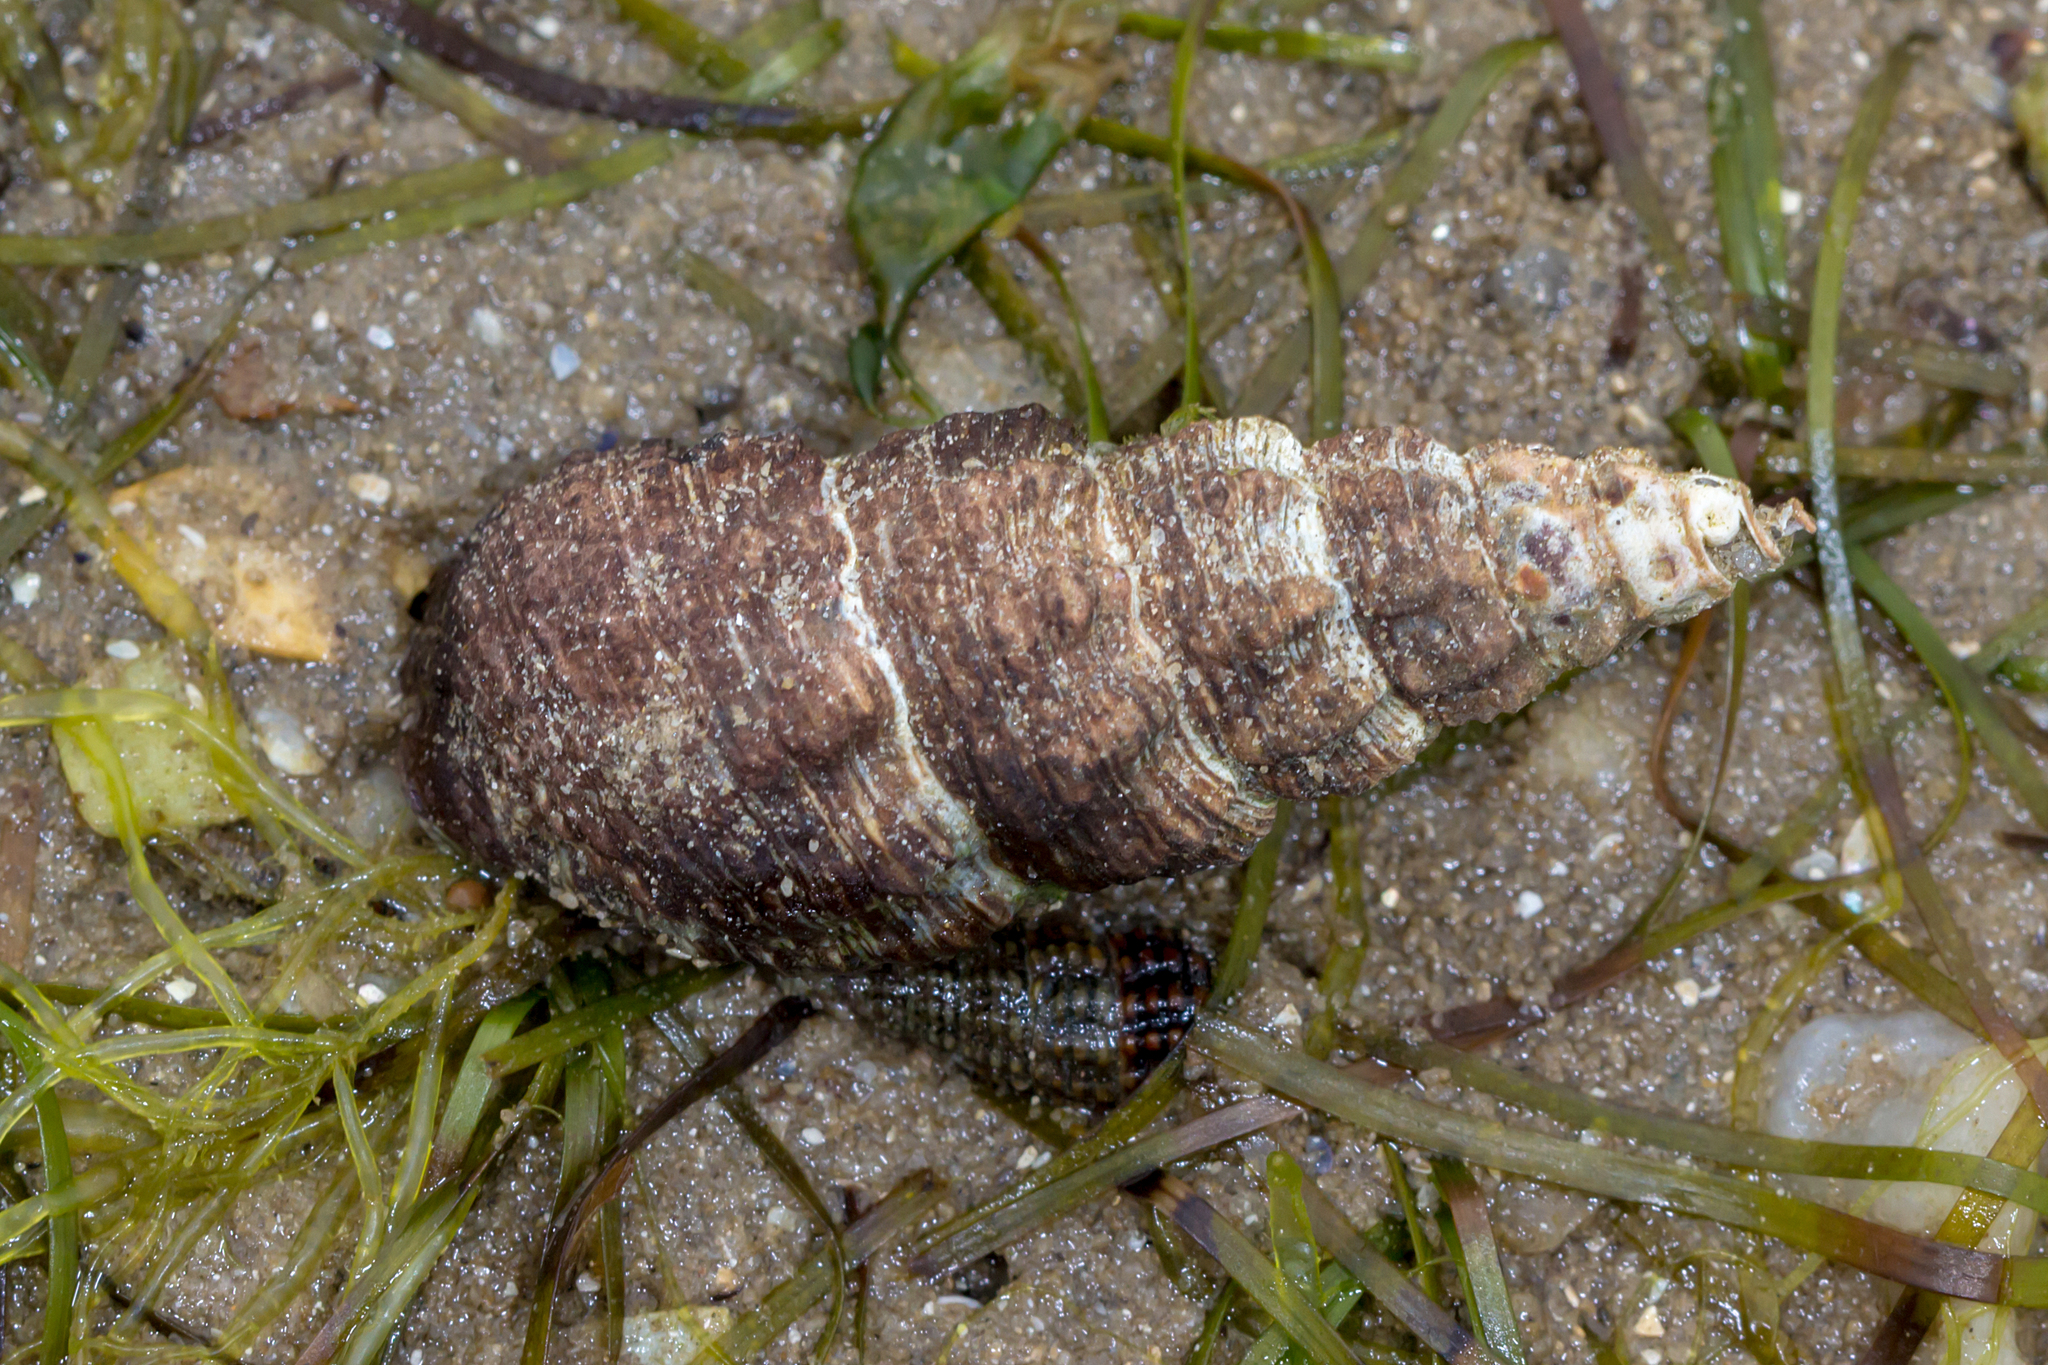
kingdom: Animalia
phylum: Mollusca
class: Gastropoda
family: Batillariidae
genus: Batillaria
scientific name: Batillaria australis
